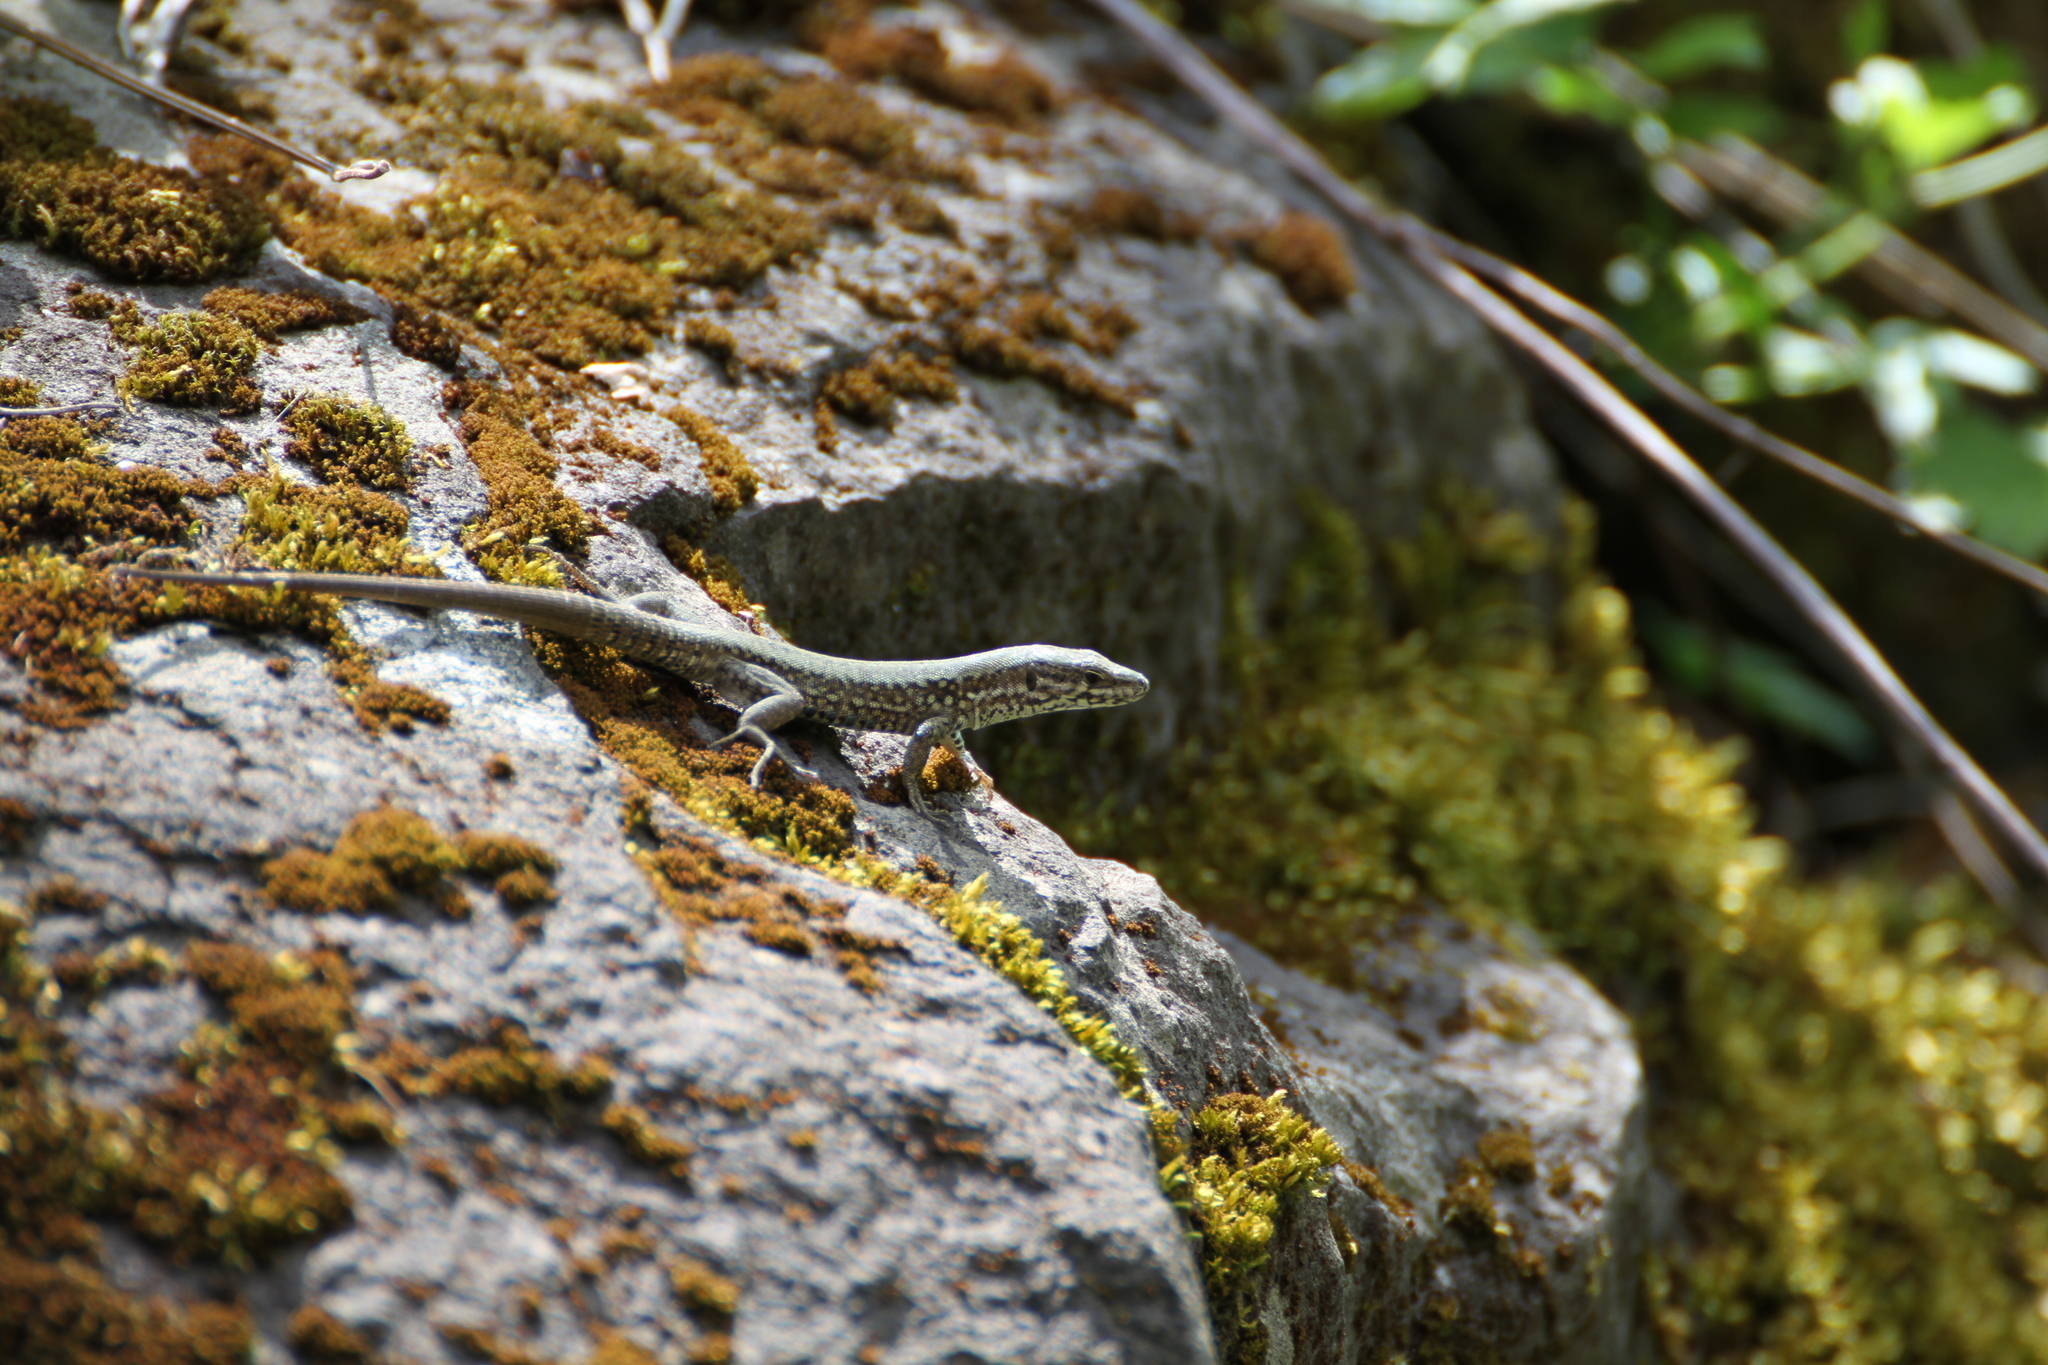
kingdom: Animalia
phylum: Chordata
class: Squamata
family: Lacertidae
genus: Podarcis
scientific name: Podarcis muralis
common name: Common wall lizard
